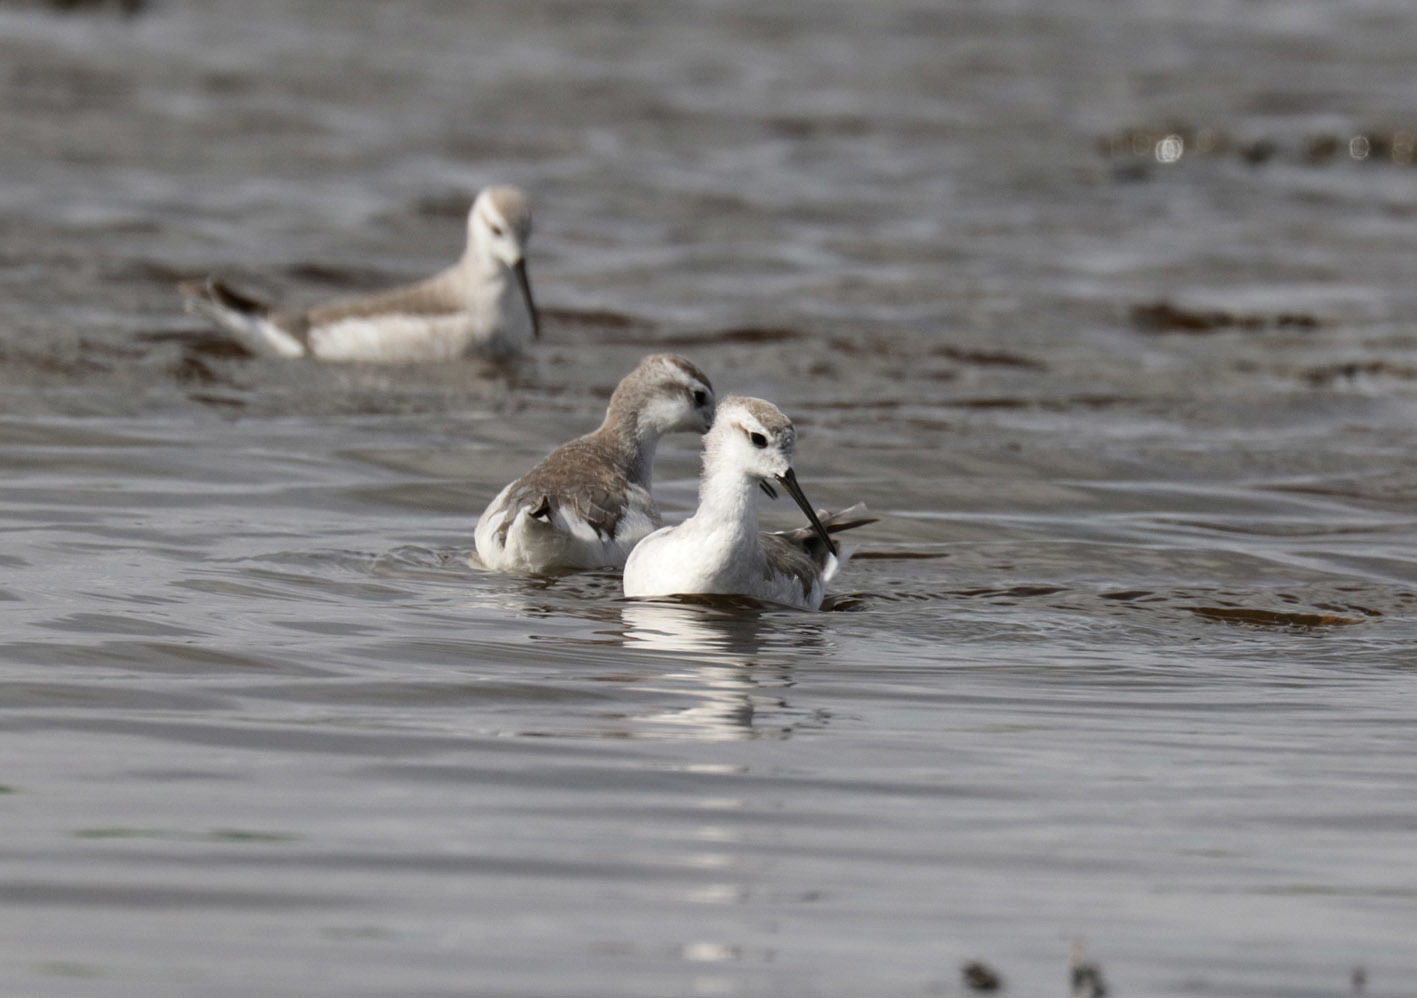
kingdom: Animalia
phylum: Chordata
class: Aves
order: Charadriiformes
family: Scolopacidae
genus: Phalaropus
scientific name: Phalaropus tricolor
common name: Wilson's phalarope
